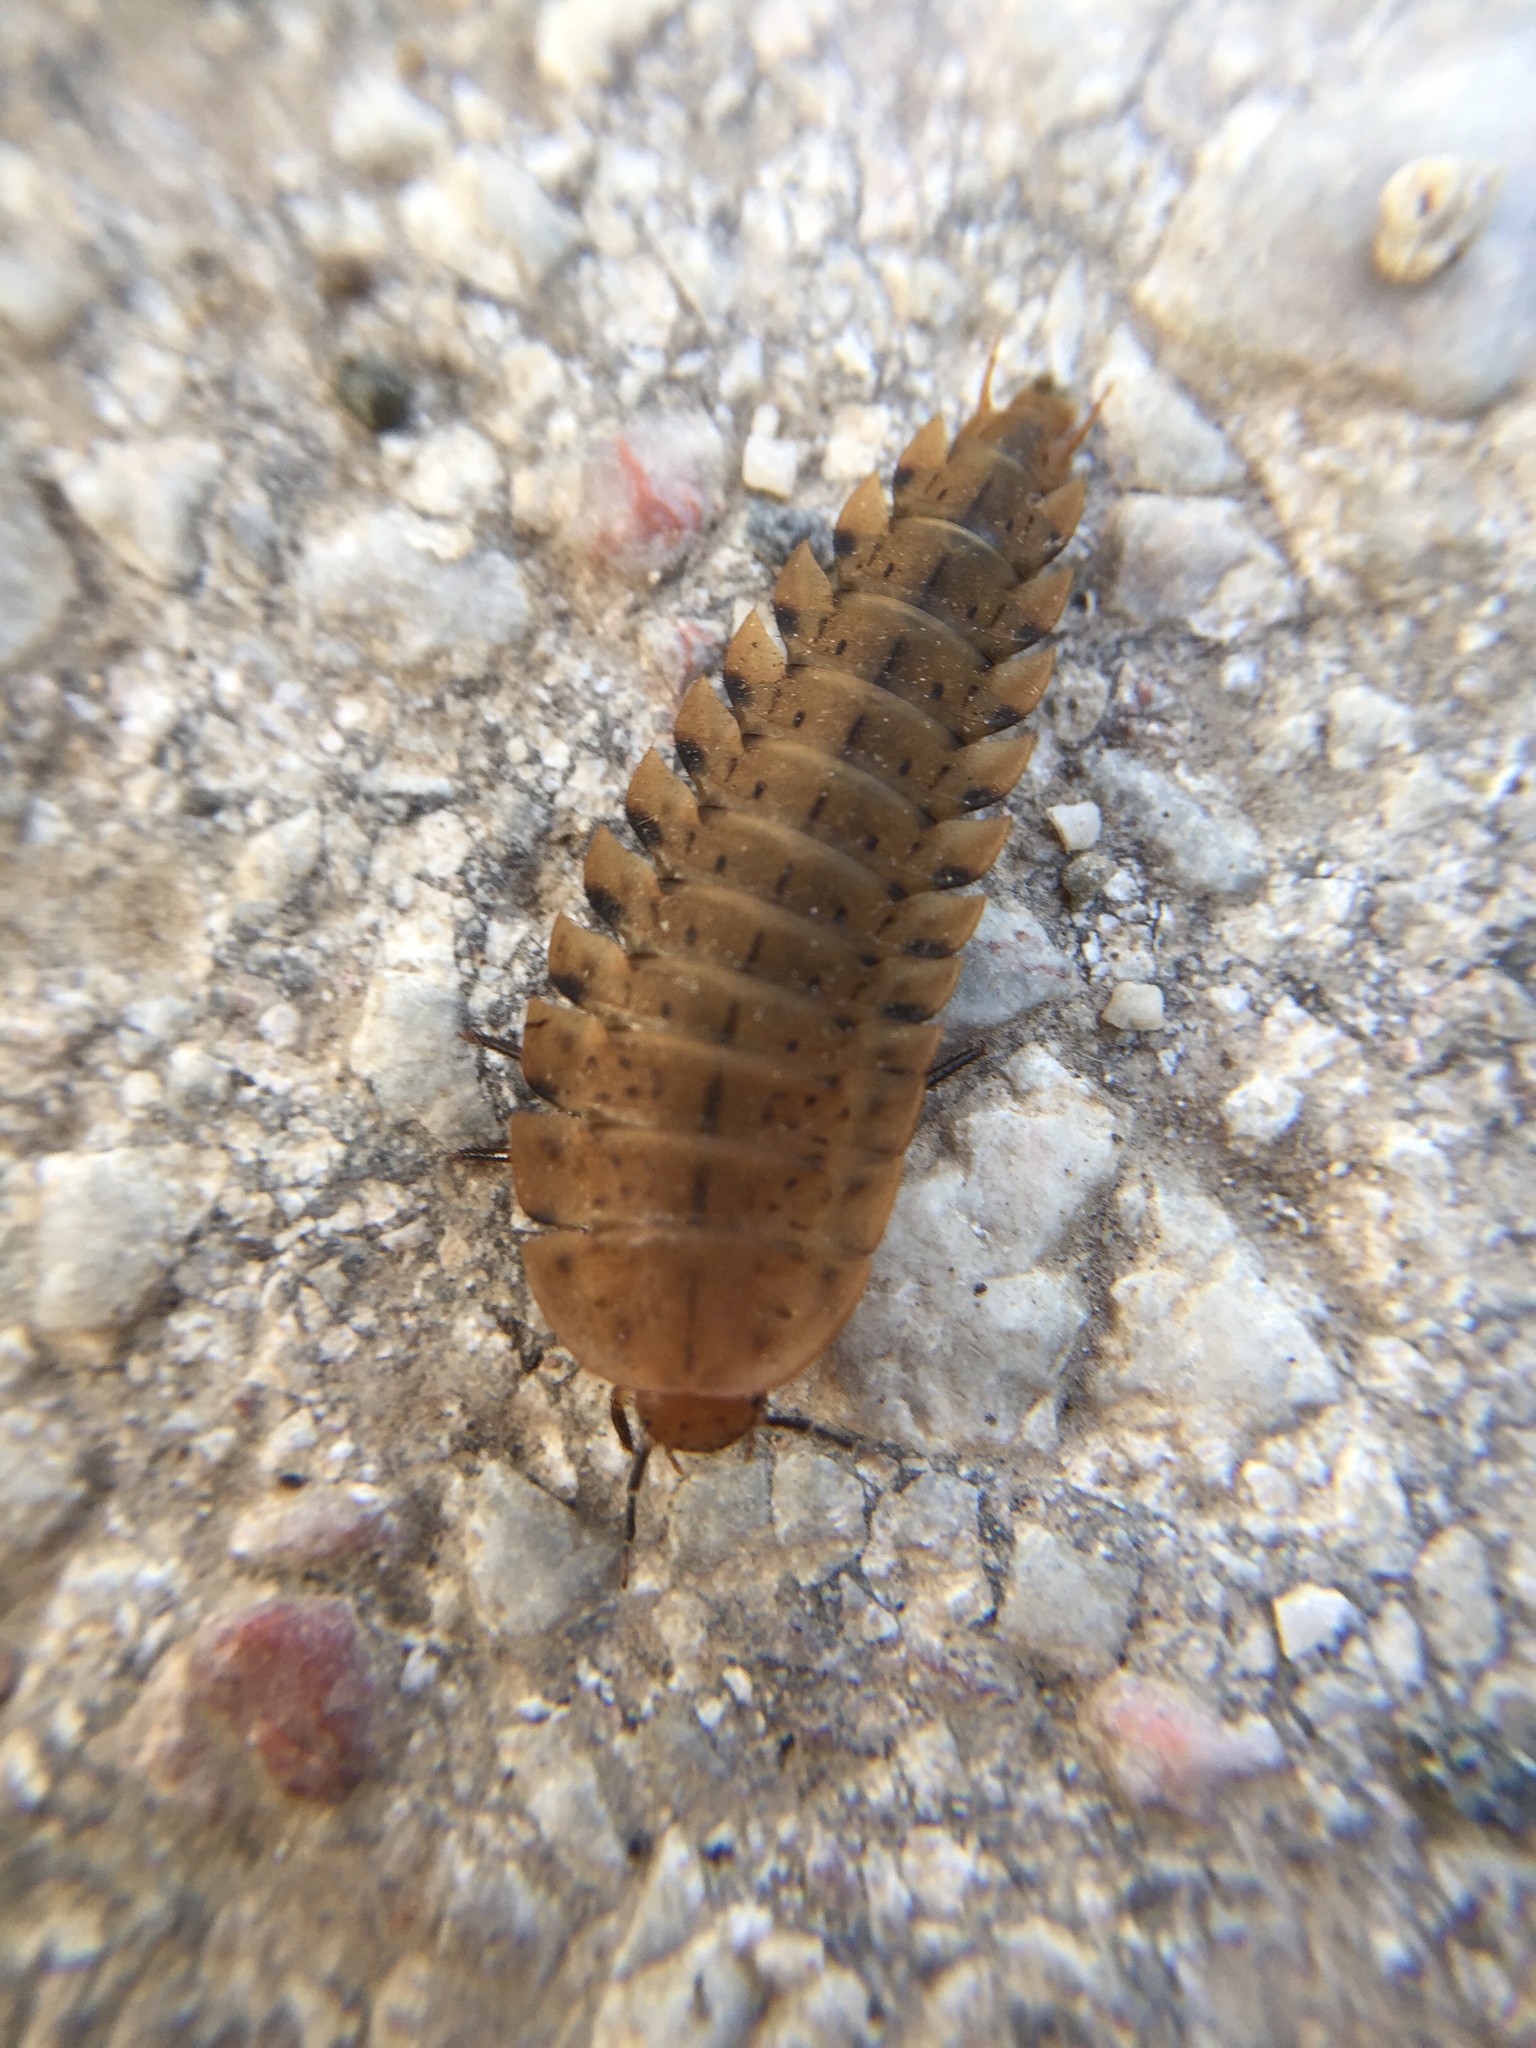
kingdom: Animalia
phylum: Arthropoda
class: Insecta
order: Coleoptera
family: Staphylinidae
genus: Silpha
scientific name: Silpha obscura
